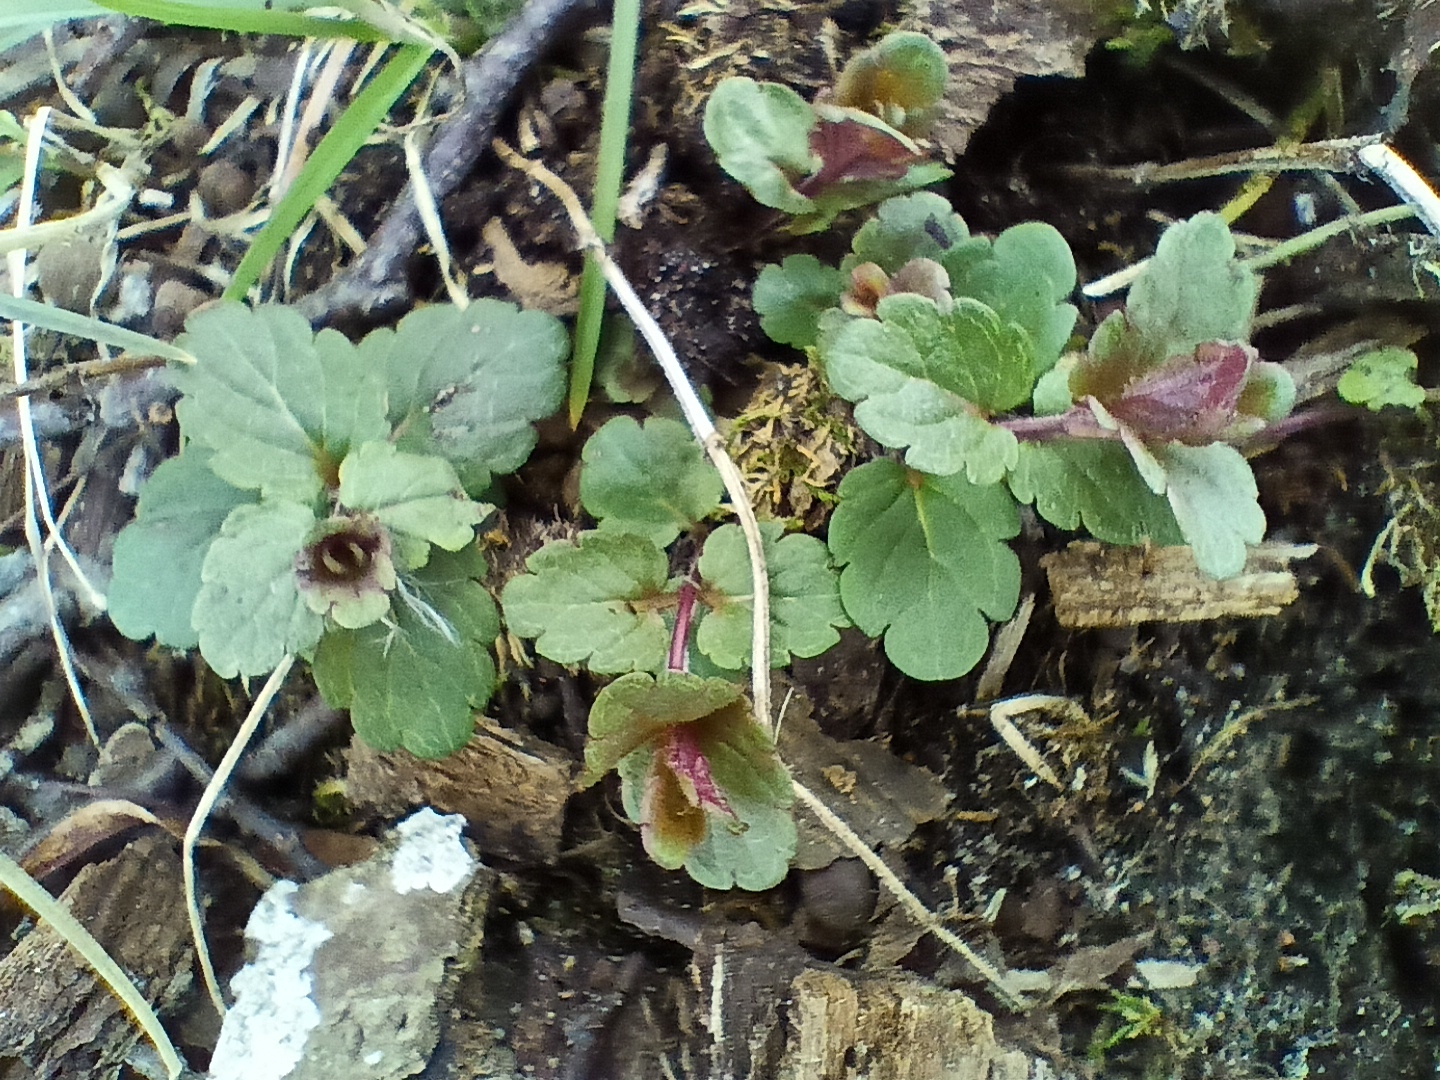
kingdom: Plantae
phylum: Tracheophyta
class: Magnoliopsida
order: Lamiales
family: Plantaginaceae
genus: Veronica
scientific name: Veronica chamaedrys
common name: Germander speedwell
